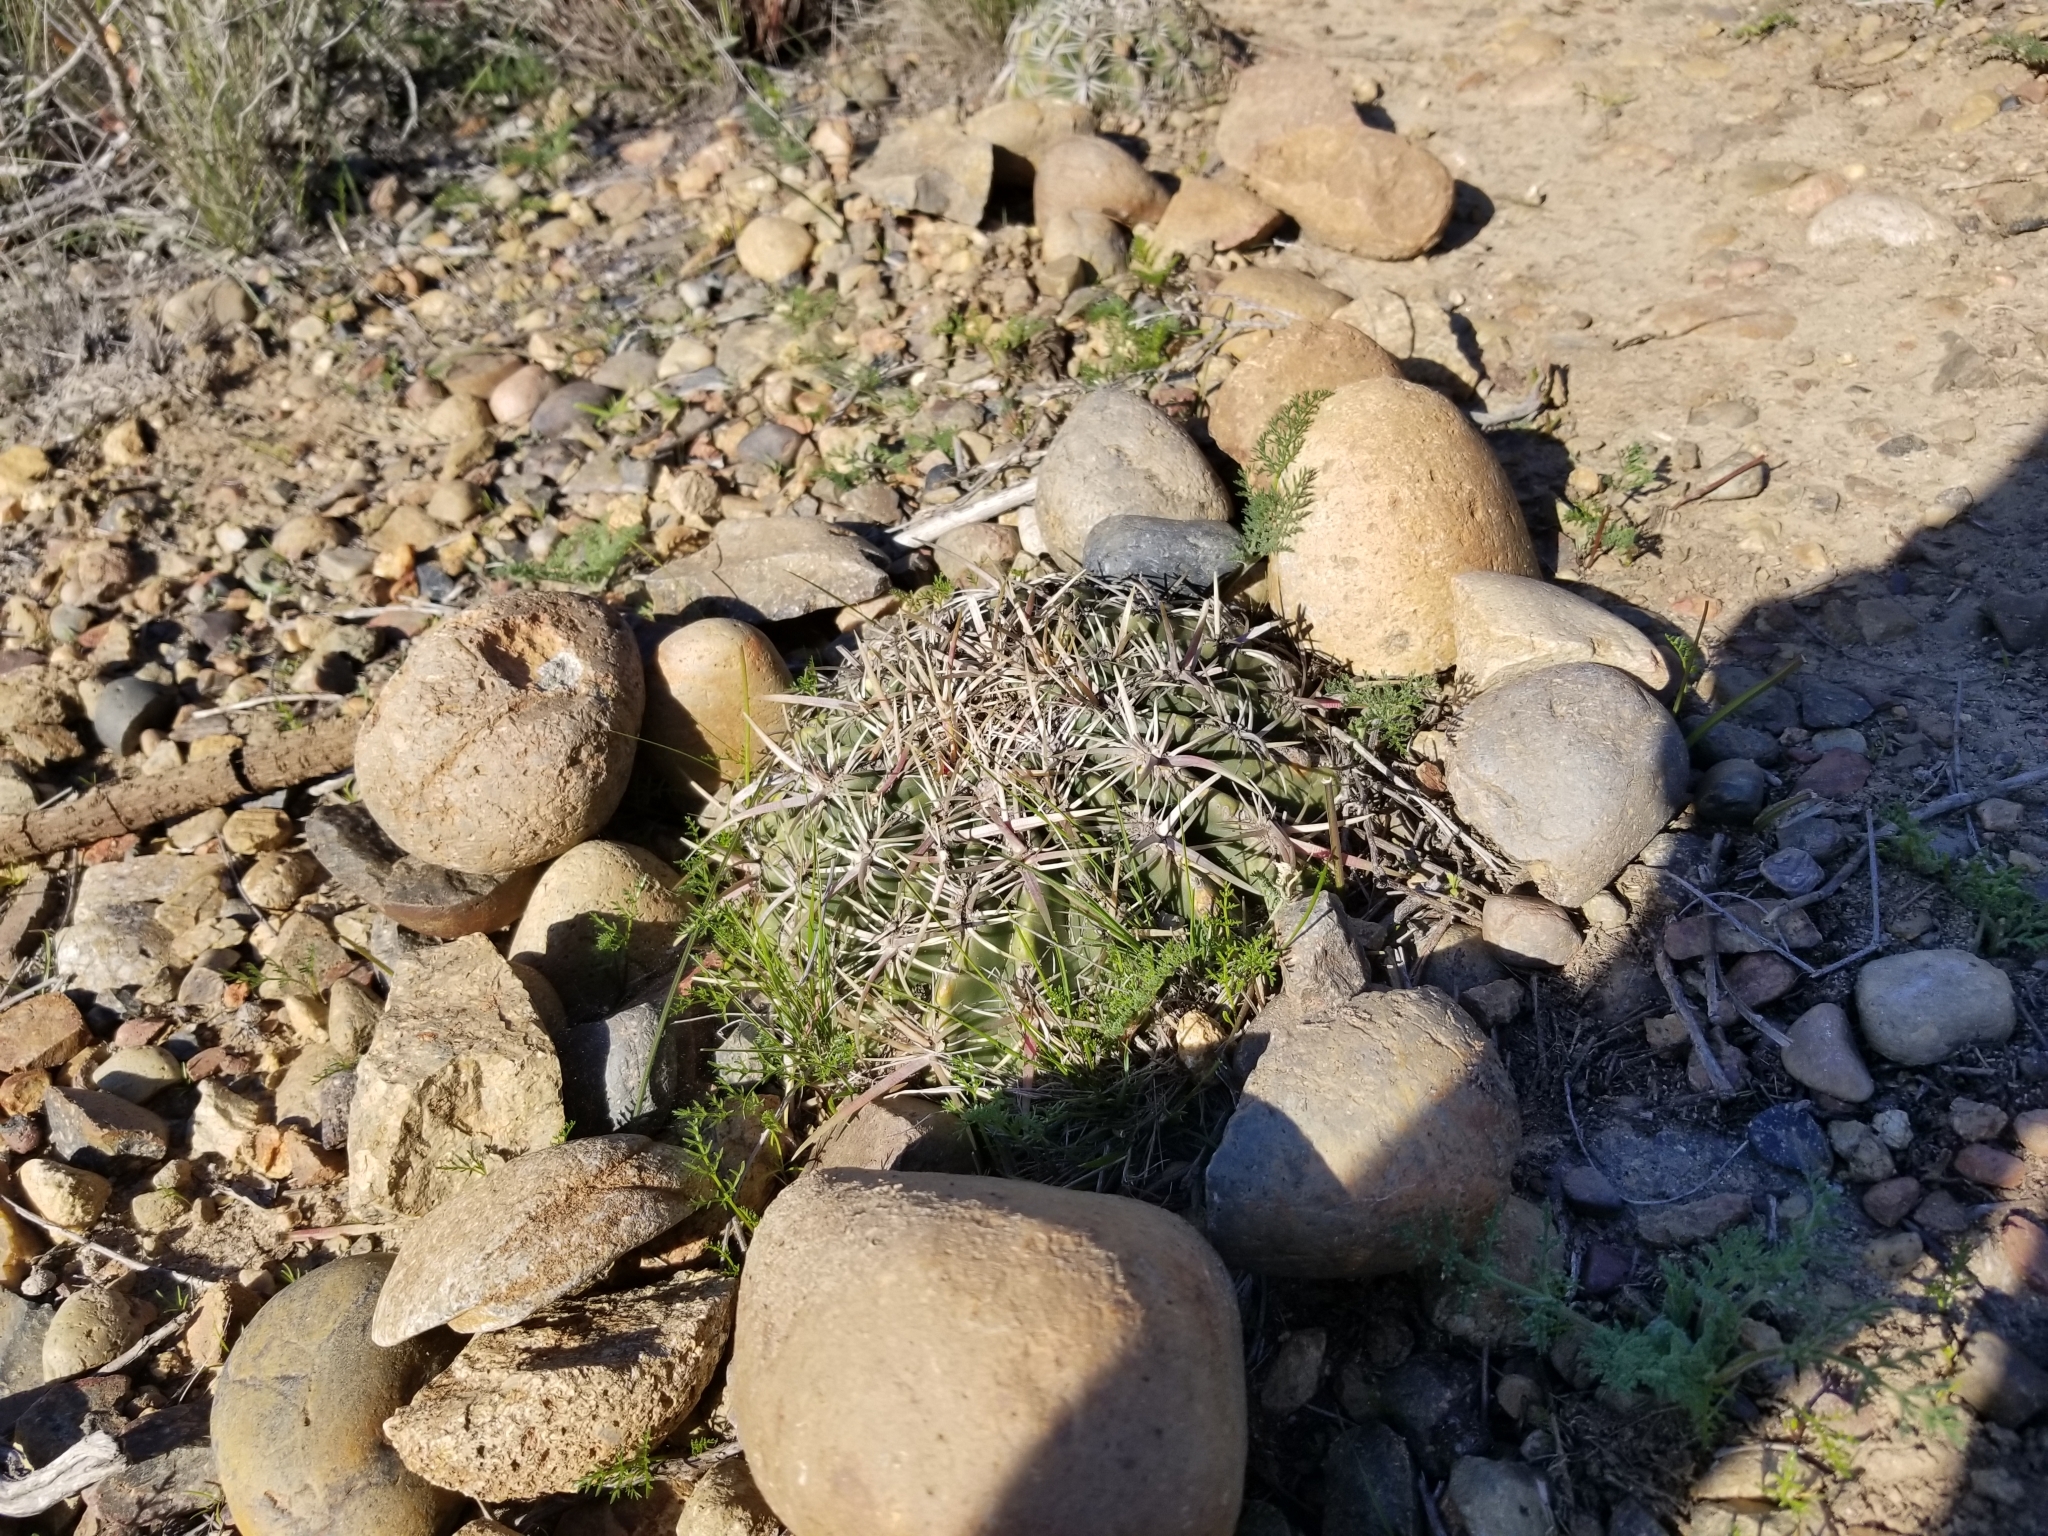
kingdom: Plantae
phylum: Tracheophyta
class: Magnoliopsida
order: Caryophyllales
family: Cactaceae
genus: Ferocactus
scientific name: Ferocactus viridescens
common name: San diego barrel cactus
